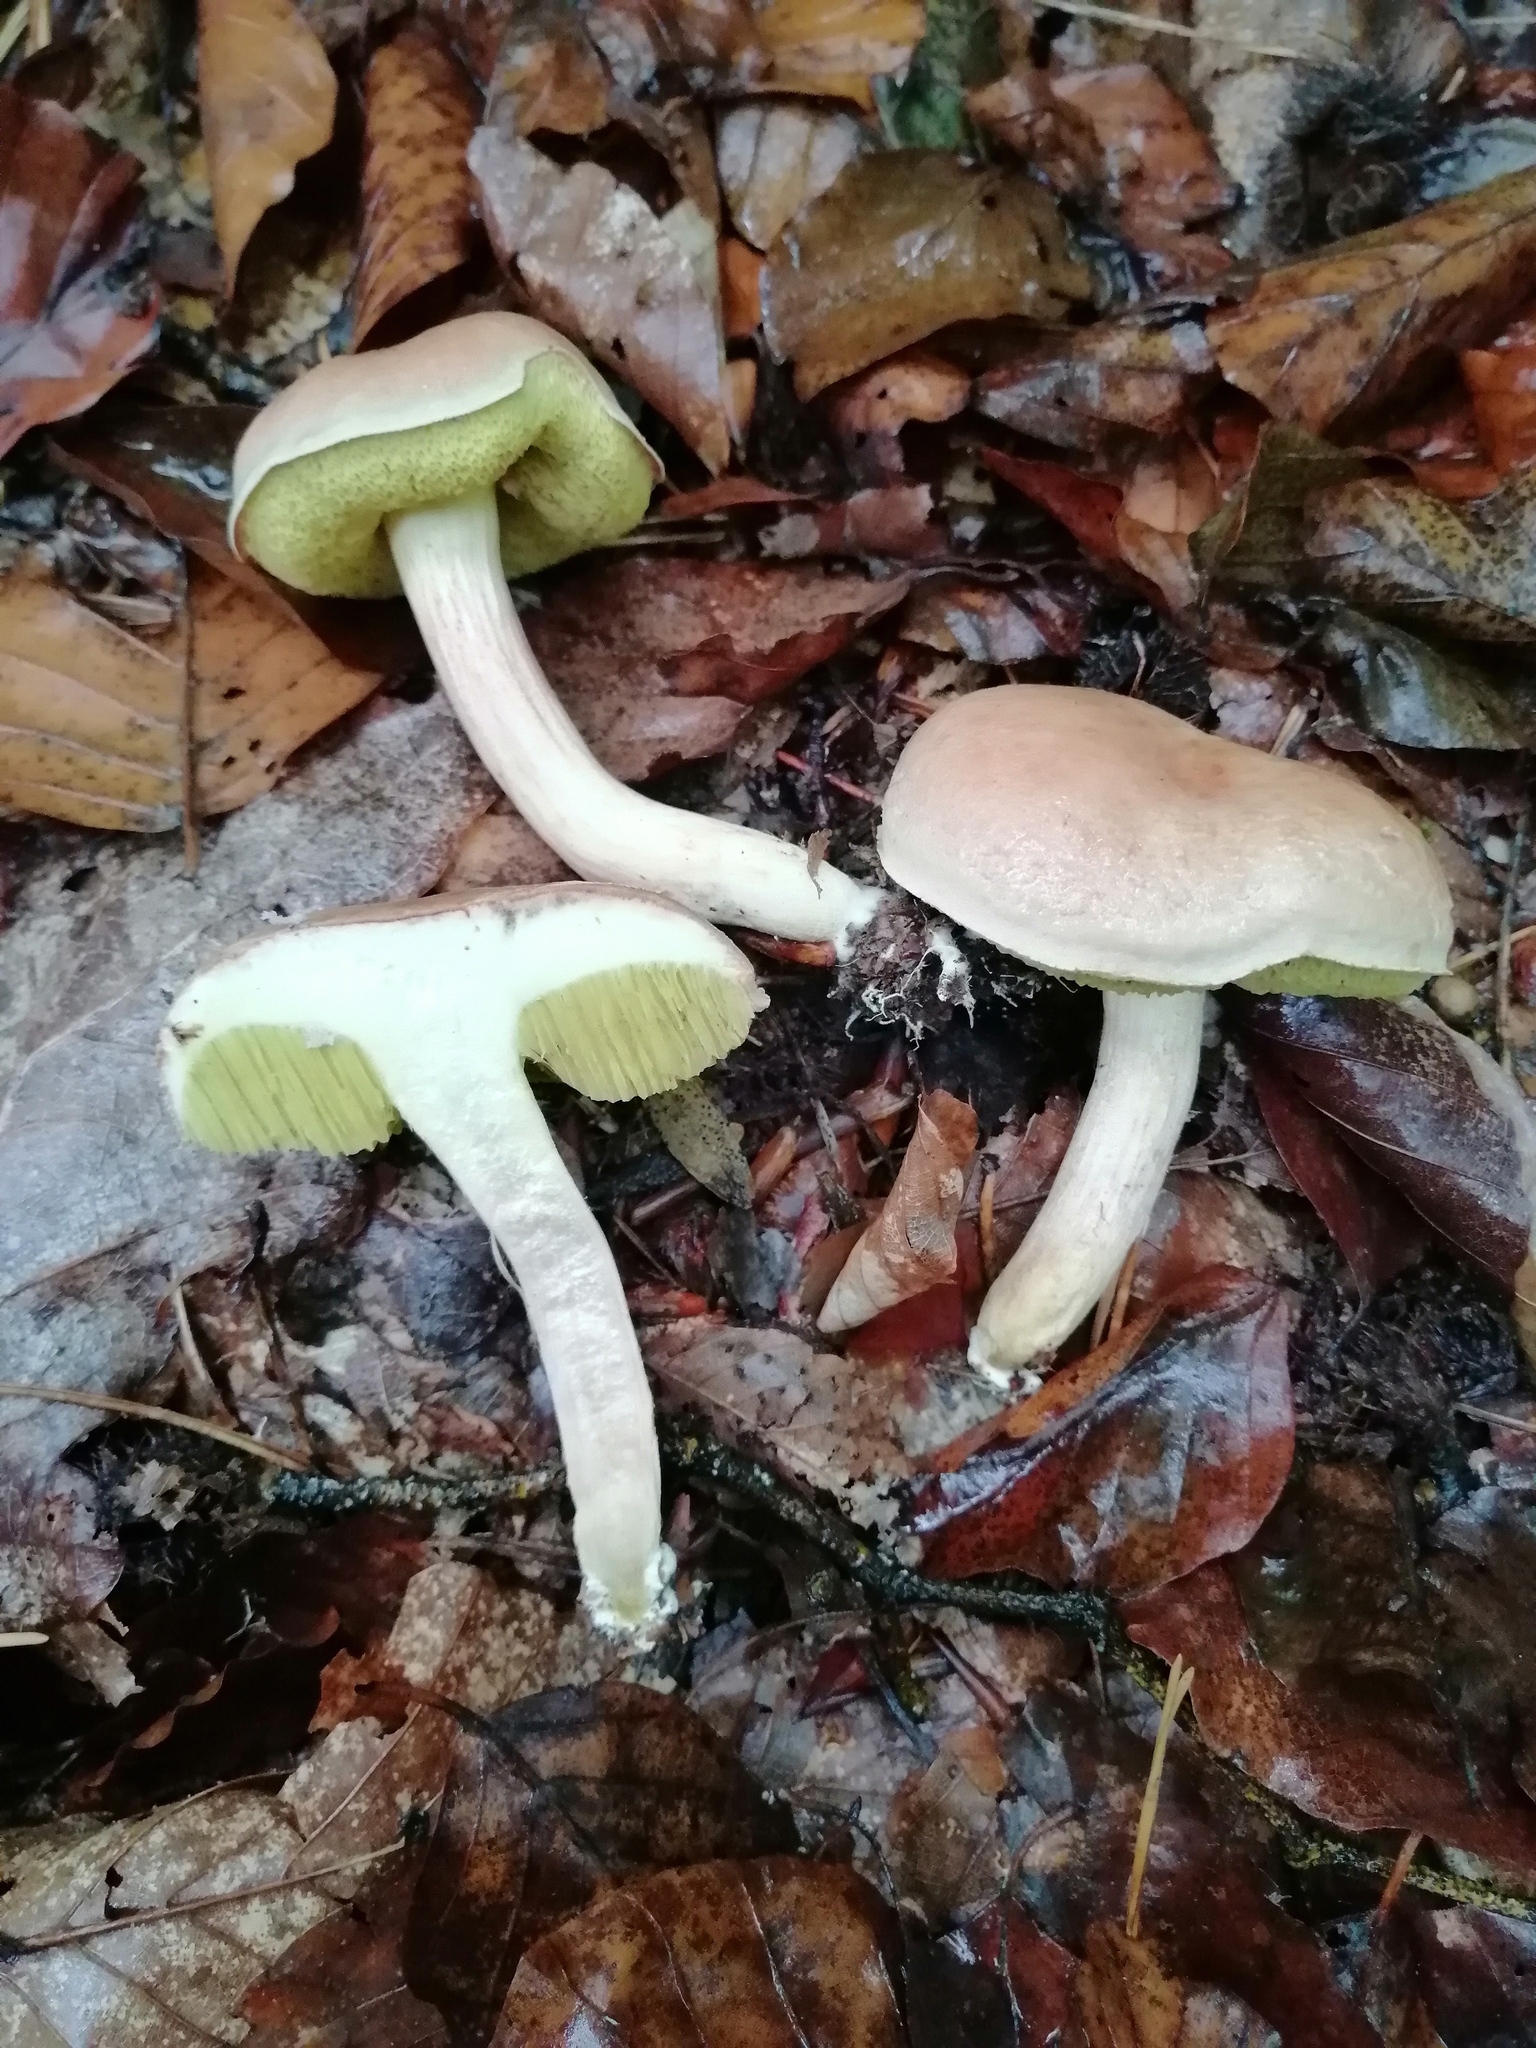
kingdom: Fungi
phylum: Basidiomycota
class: Agaricomycetes
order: Boletales
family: Boletaceae
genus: Xerocomus
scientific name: Xerocomus subtomentosus
